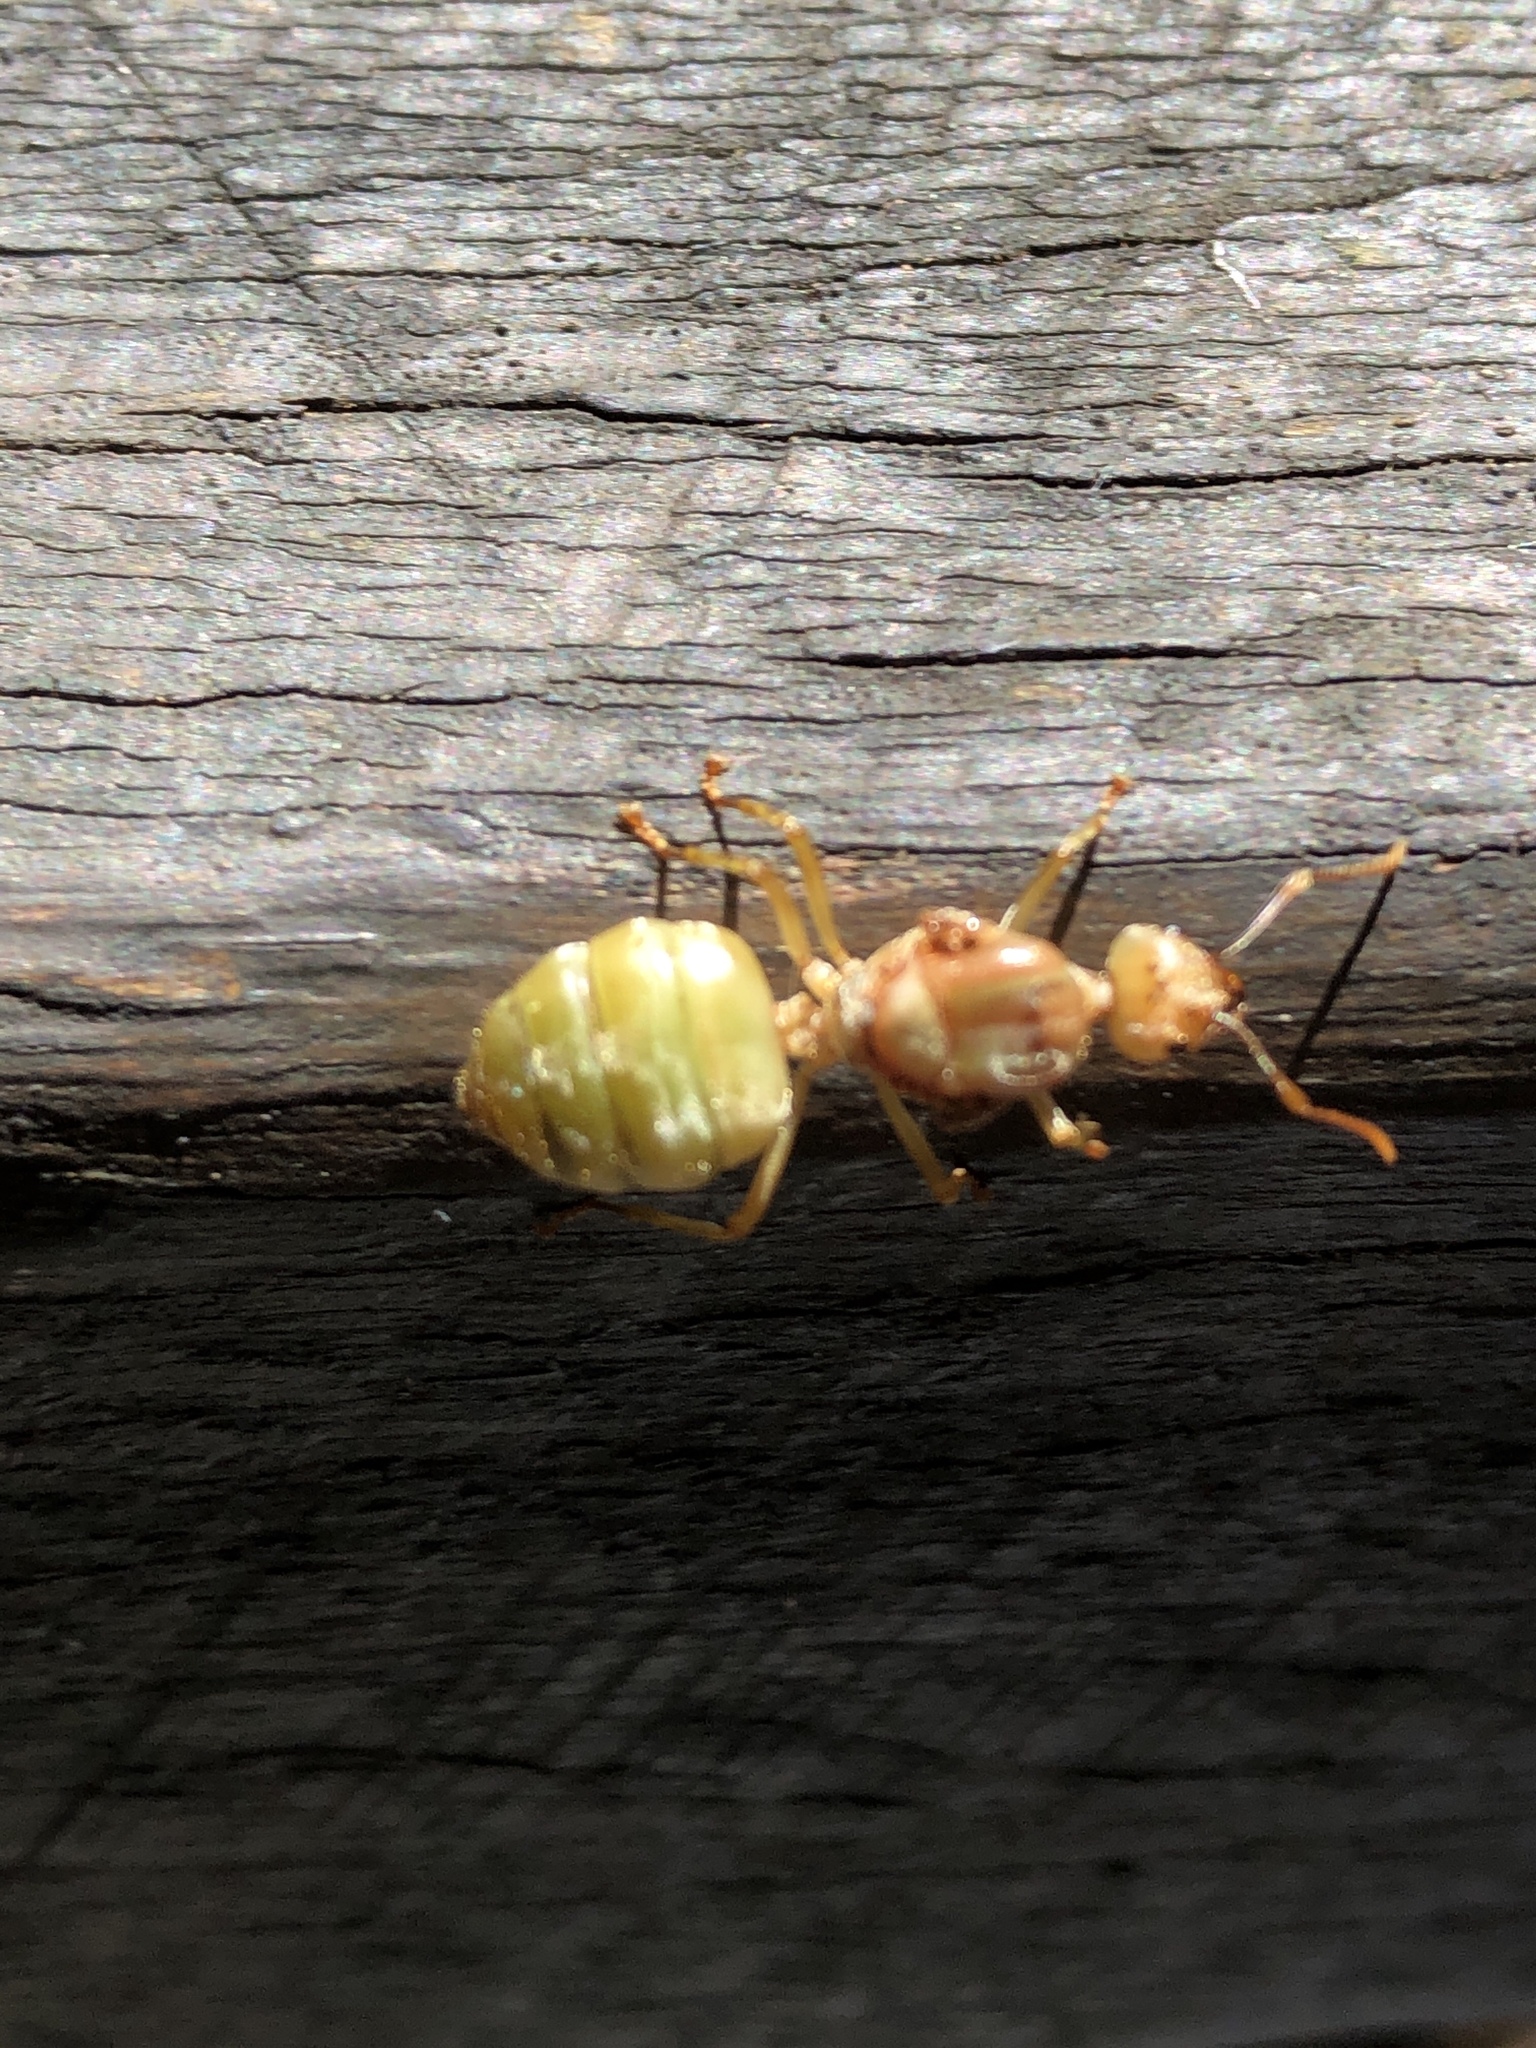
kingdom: Animalia
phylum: Arthropoda
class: Insecta
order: Hymenoptera
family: Formicidae
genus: Oecophylla
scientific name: Oecophylla smaragdina
